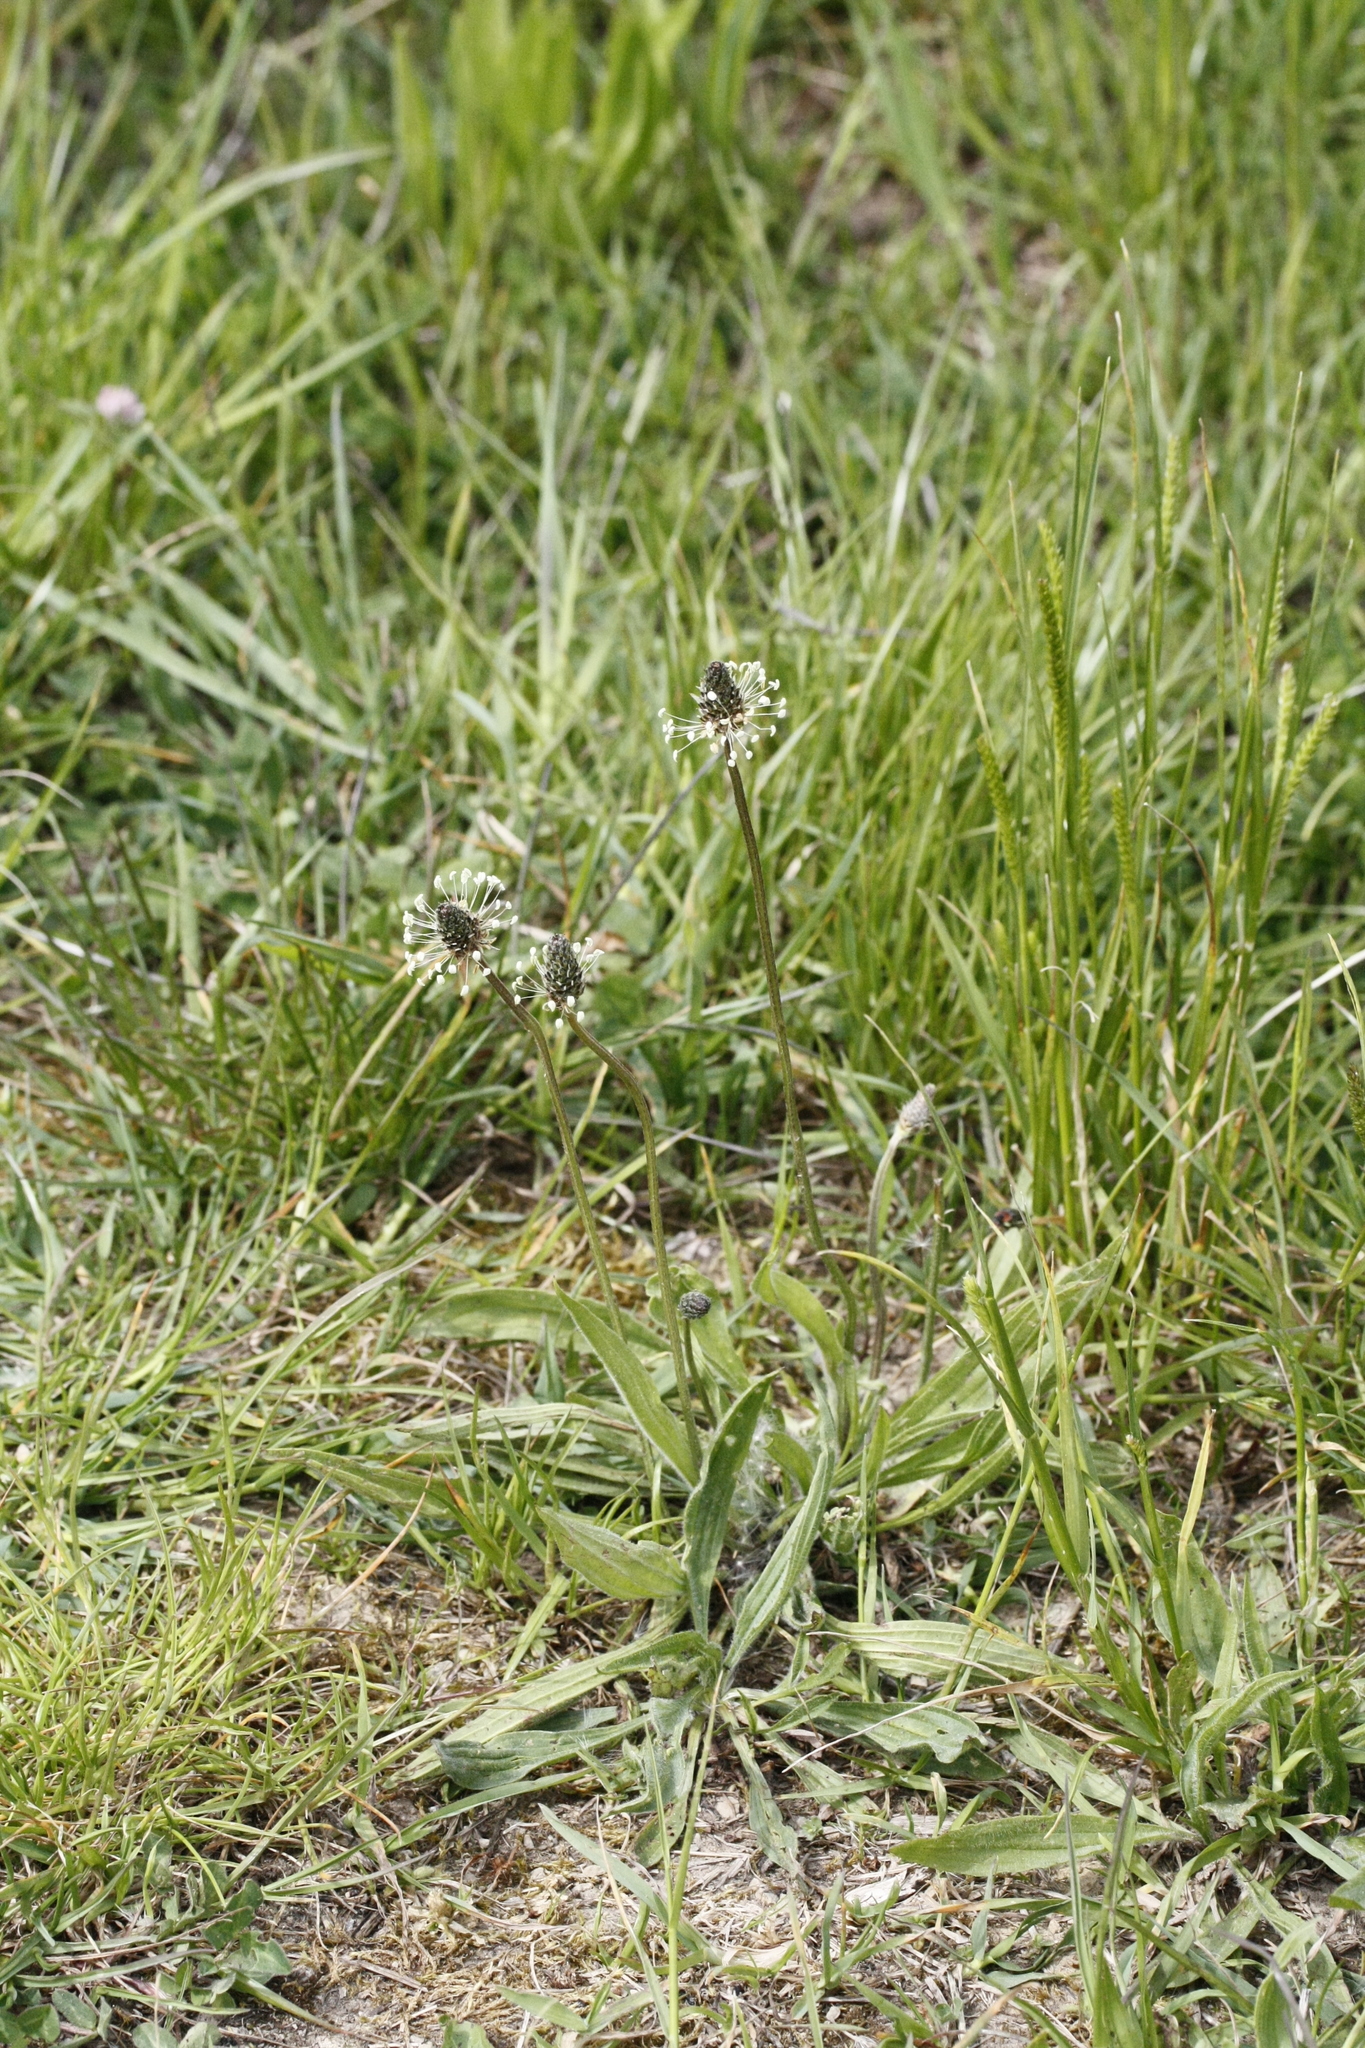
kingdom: Plantae
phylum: Tracheophyta
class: Magnoliopsida
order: Lamiales
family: Plantaginaceae
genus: Plantago
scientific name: Plantago lanceolata
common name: Ribwort plantain
